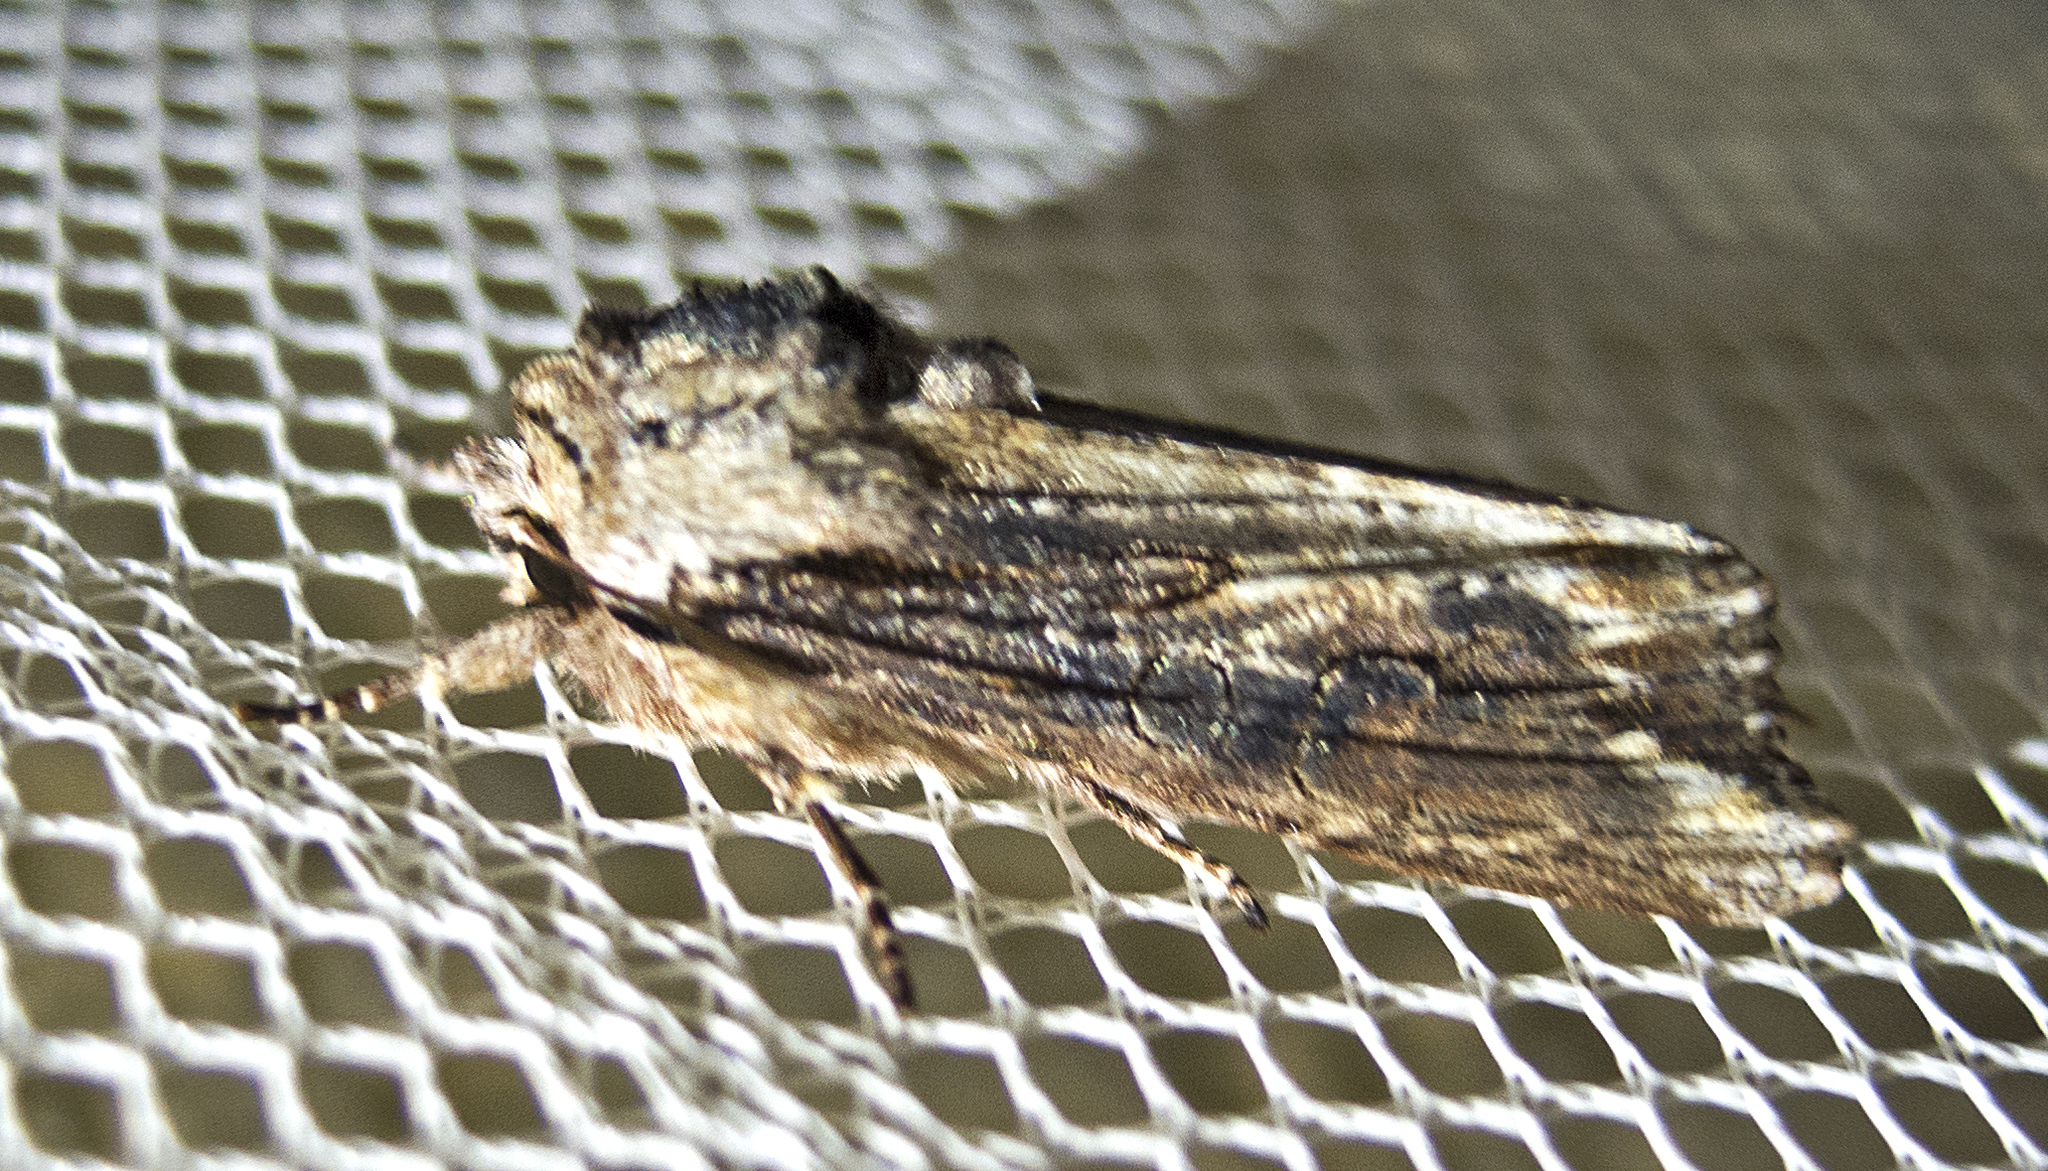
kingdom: Animalia
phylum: Arthropoda
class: Insecta
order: Lepidoptera
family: Noctuidae
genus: Egira
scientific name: Egira
